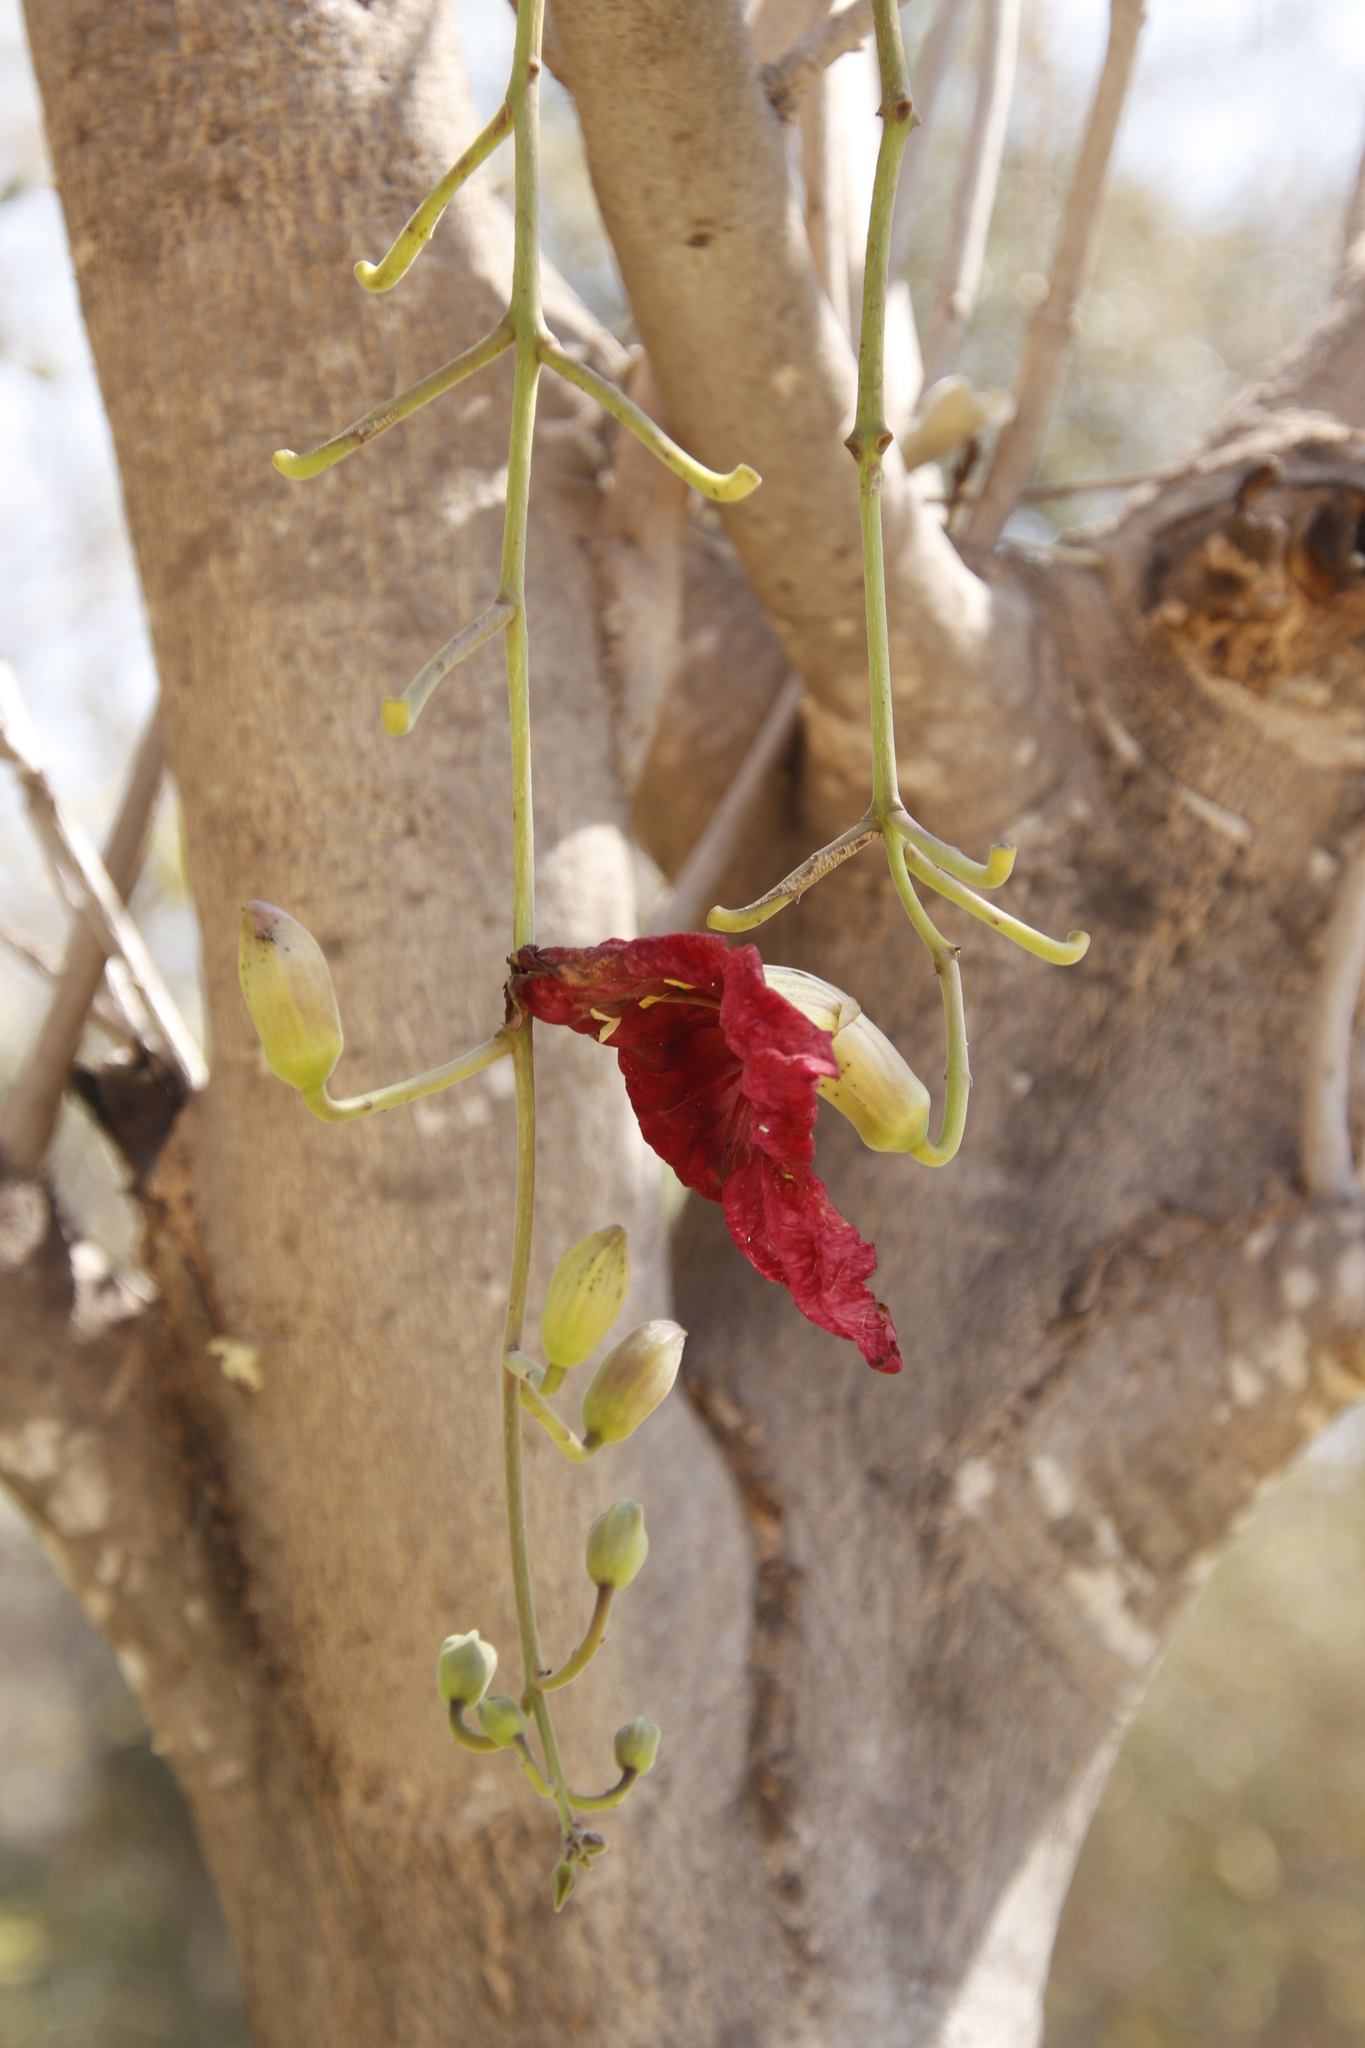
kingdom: Plantae
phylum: Tracheophyta
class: Magnoliopsida
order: Lamiales
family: Bignoniaceae
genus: Kigelia
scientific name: Kigelia africana
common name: Sausage tree
